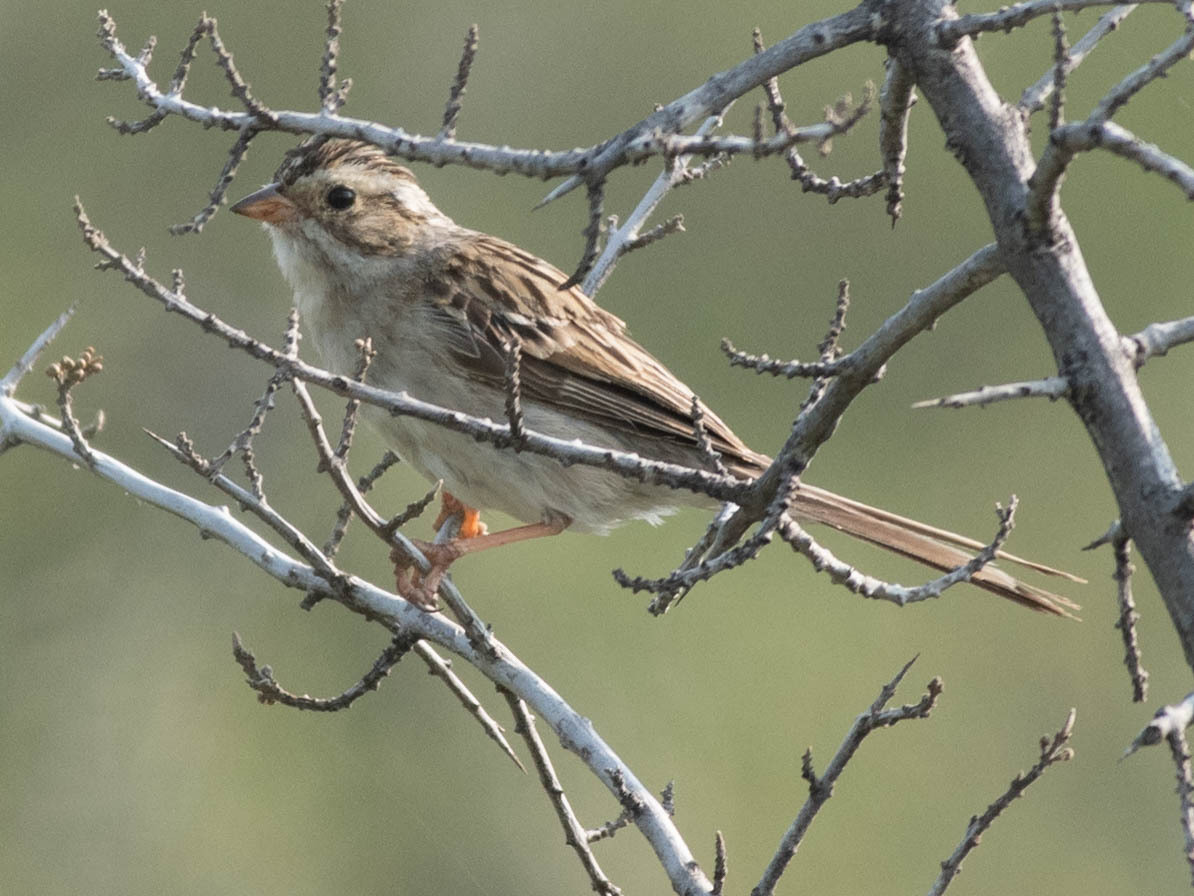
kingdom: Animalia
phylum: Chordata
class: Aves
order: Passeriformes
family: Passerellidae
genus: Spizella
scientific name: Spizella pallida
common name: Clay-colored sparrow
